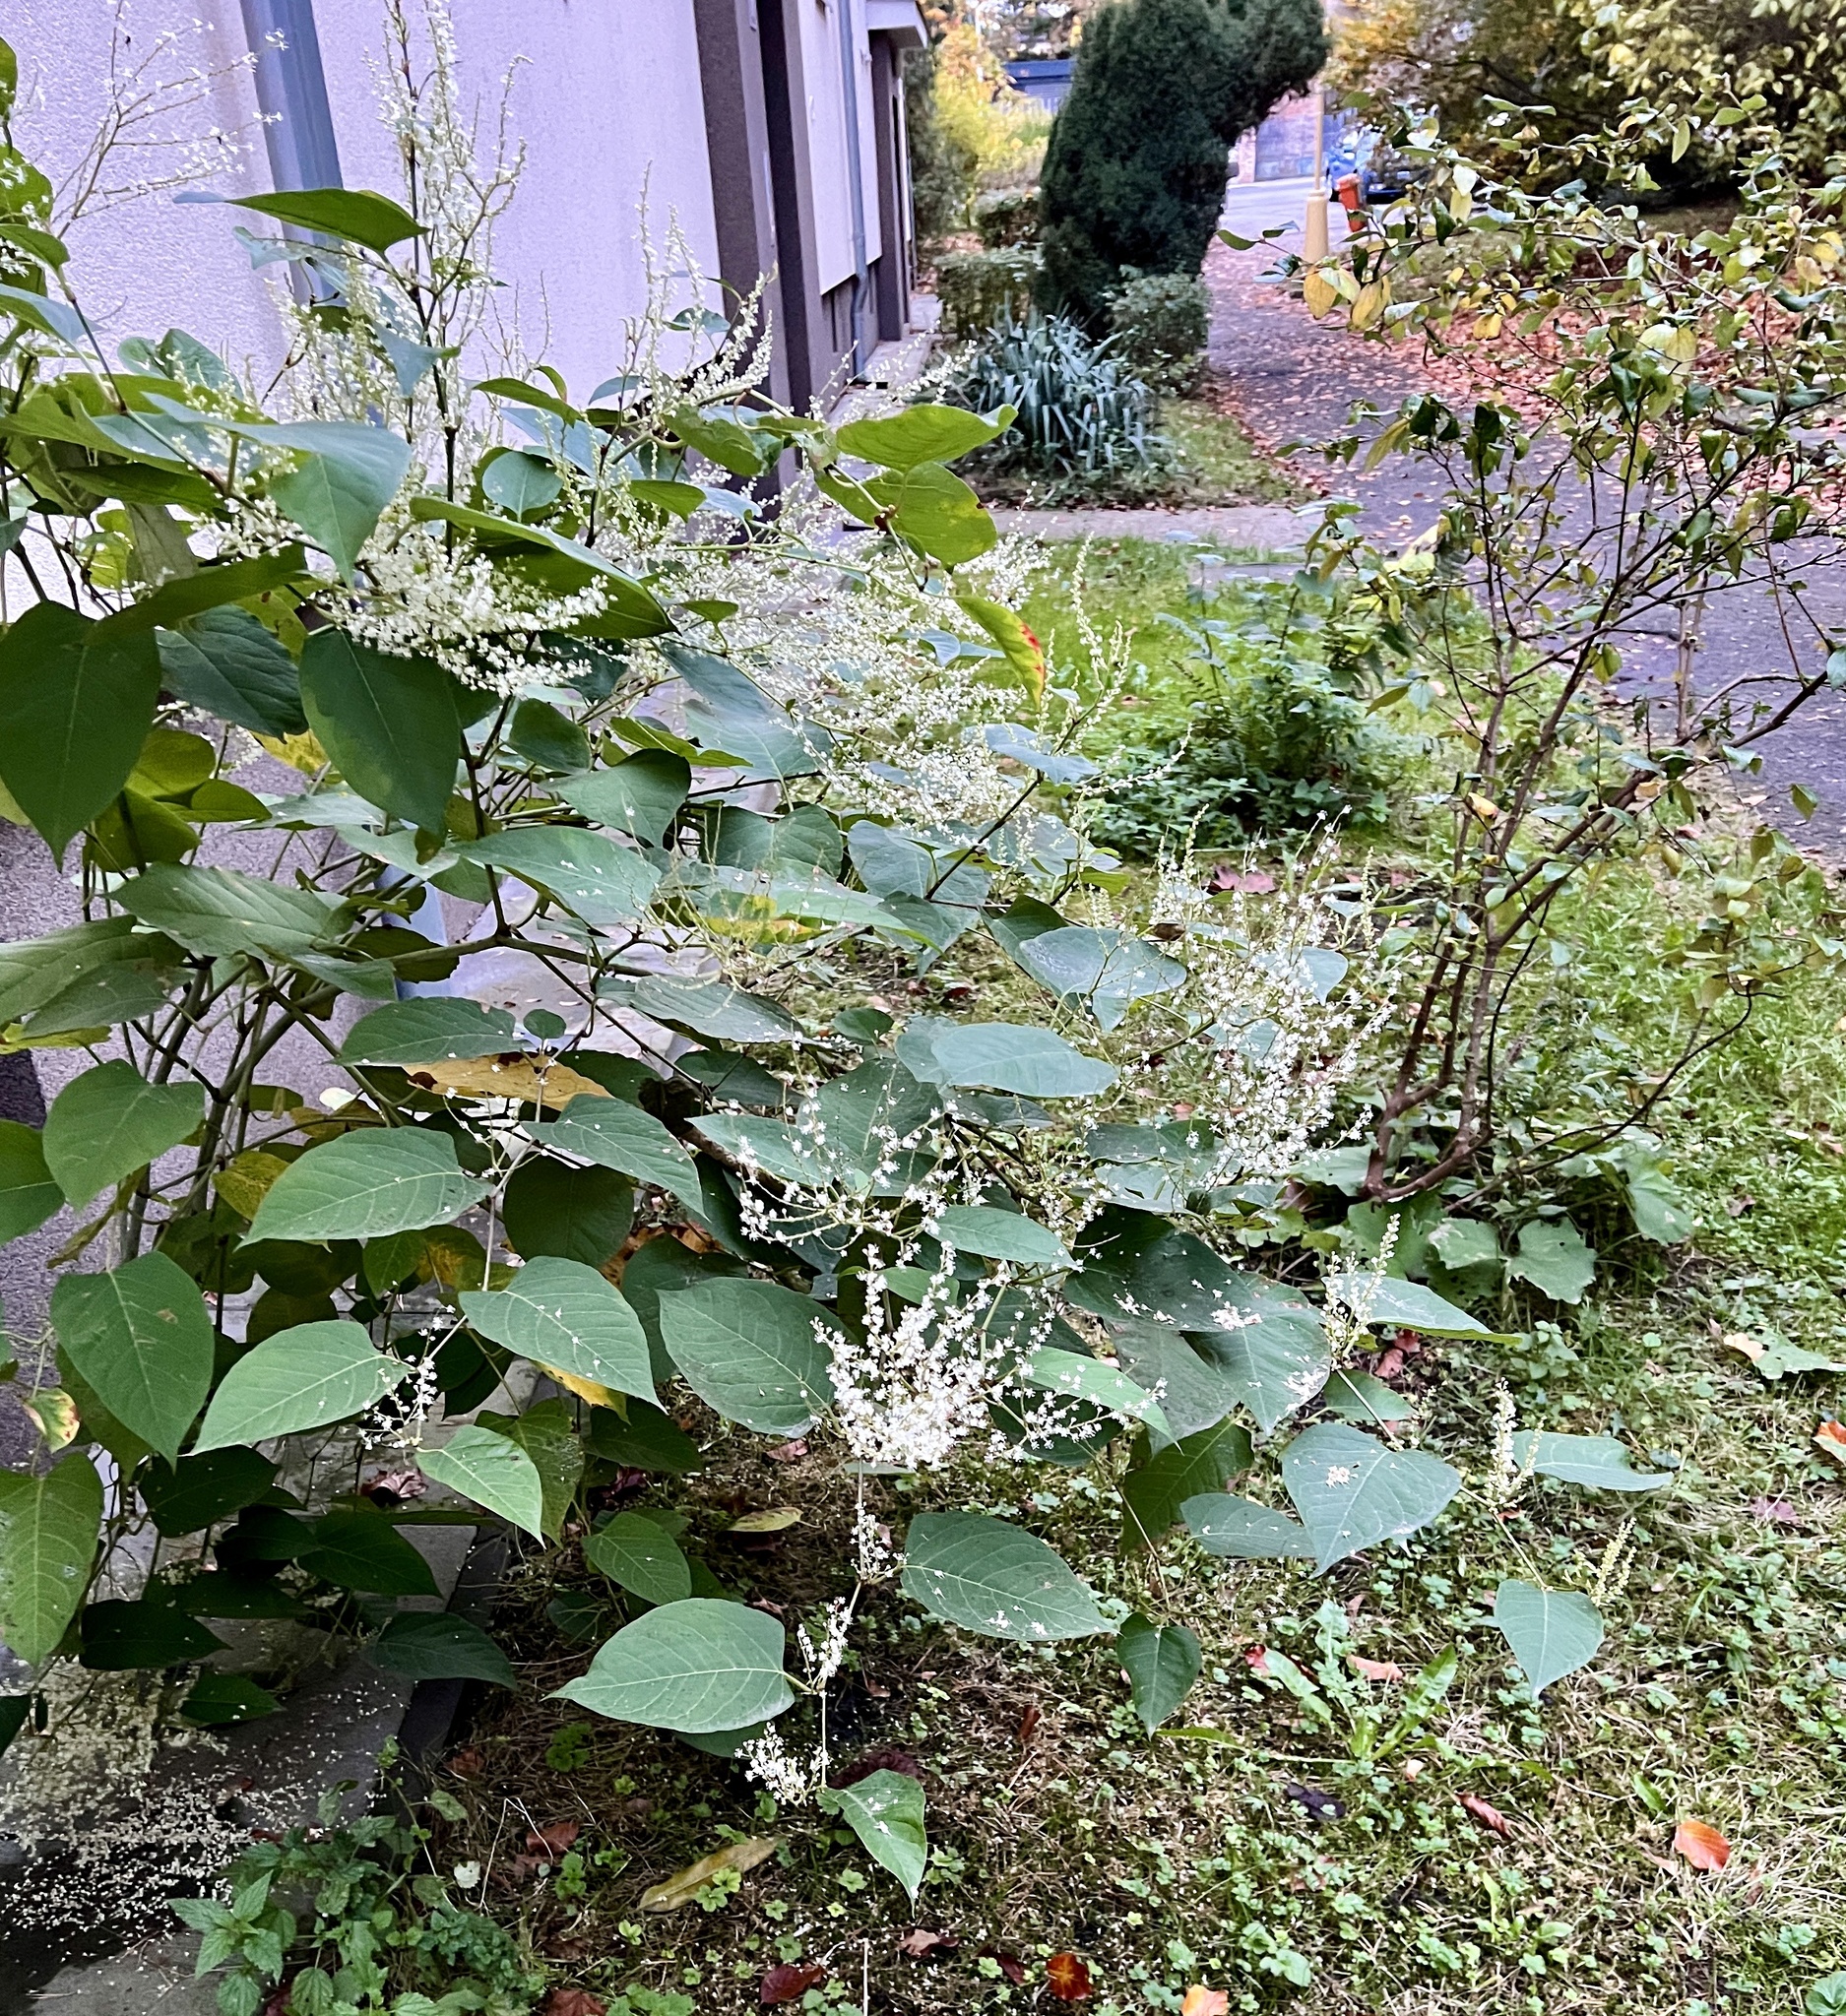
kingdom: Plantae
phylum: Tracheophyta
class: Magnoliopsida
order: Caryophyllales
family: Polygonaceae
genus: Reynoutria
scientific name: Reynoutria japonica
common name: Japanese knotweed
